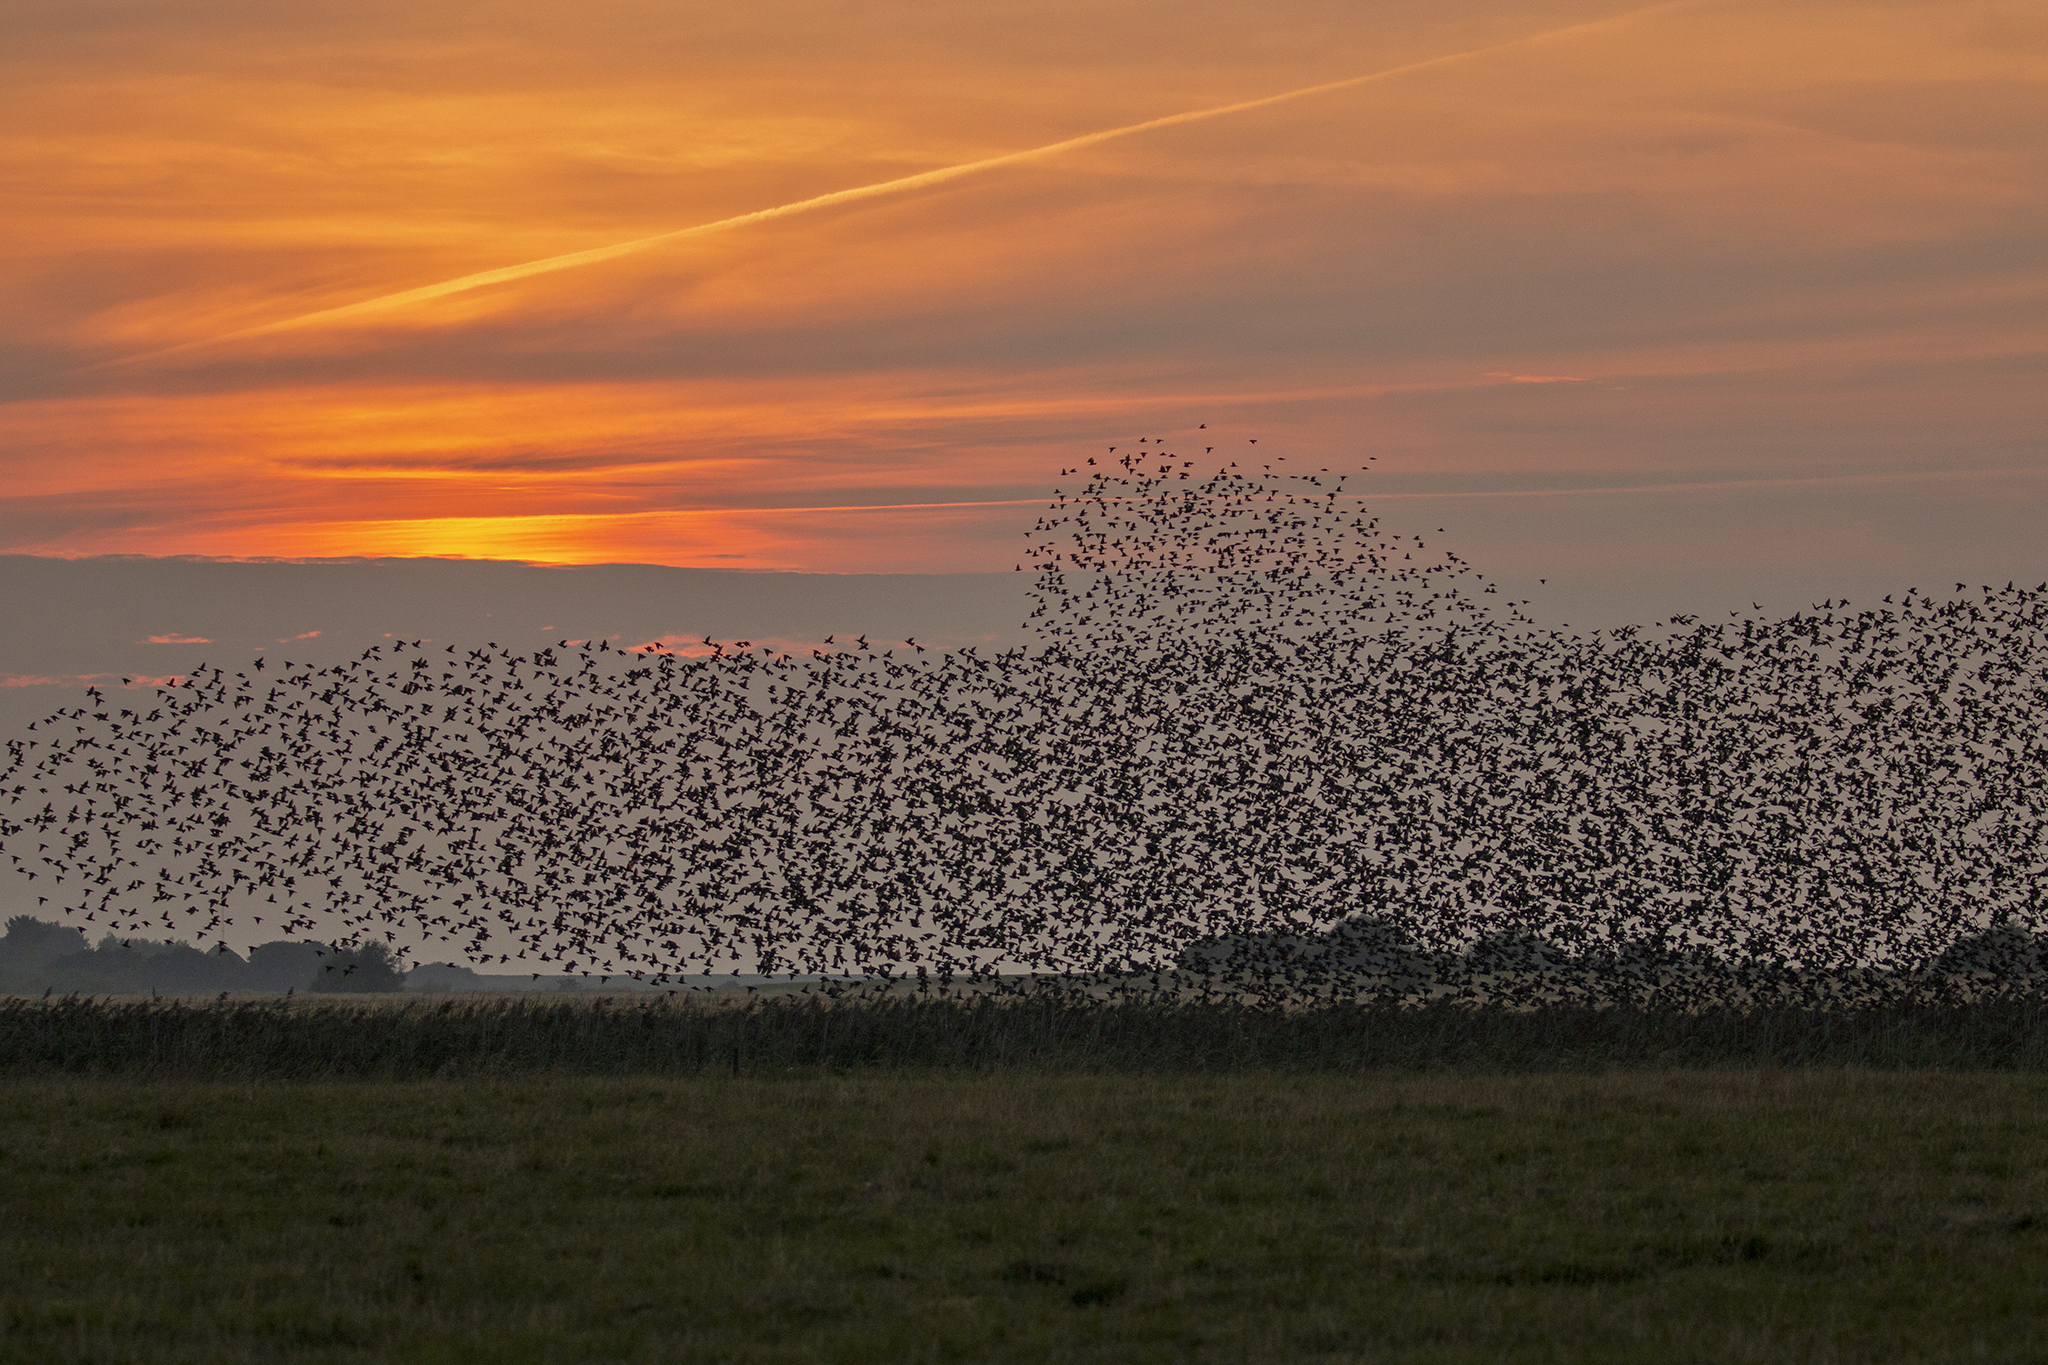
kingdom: Animalia
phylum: Chordata
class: Aves
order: Passeriformes
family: Sturnidae
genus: Sturnus
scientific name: Sturnus vulgaris
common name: Common starling
